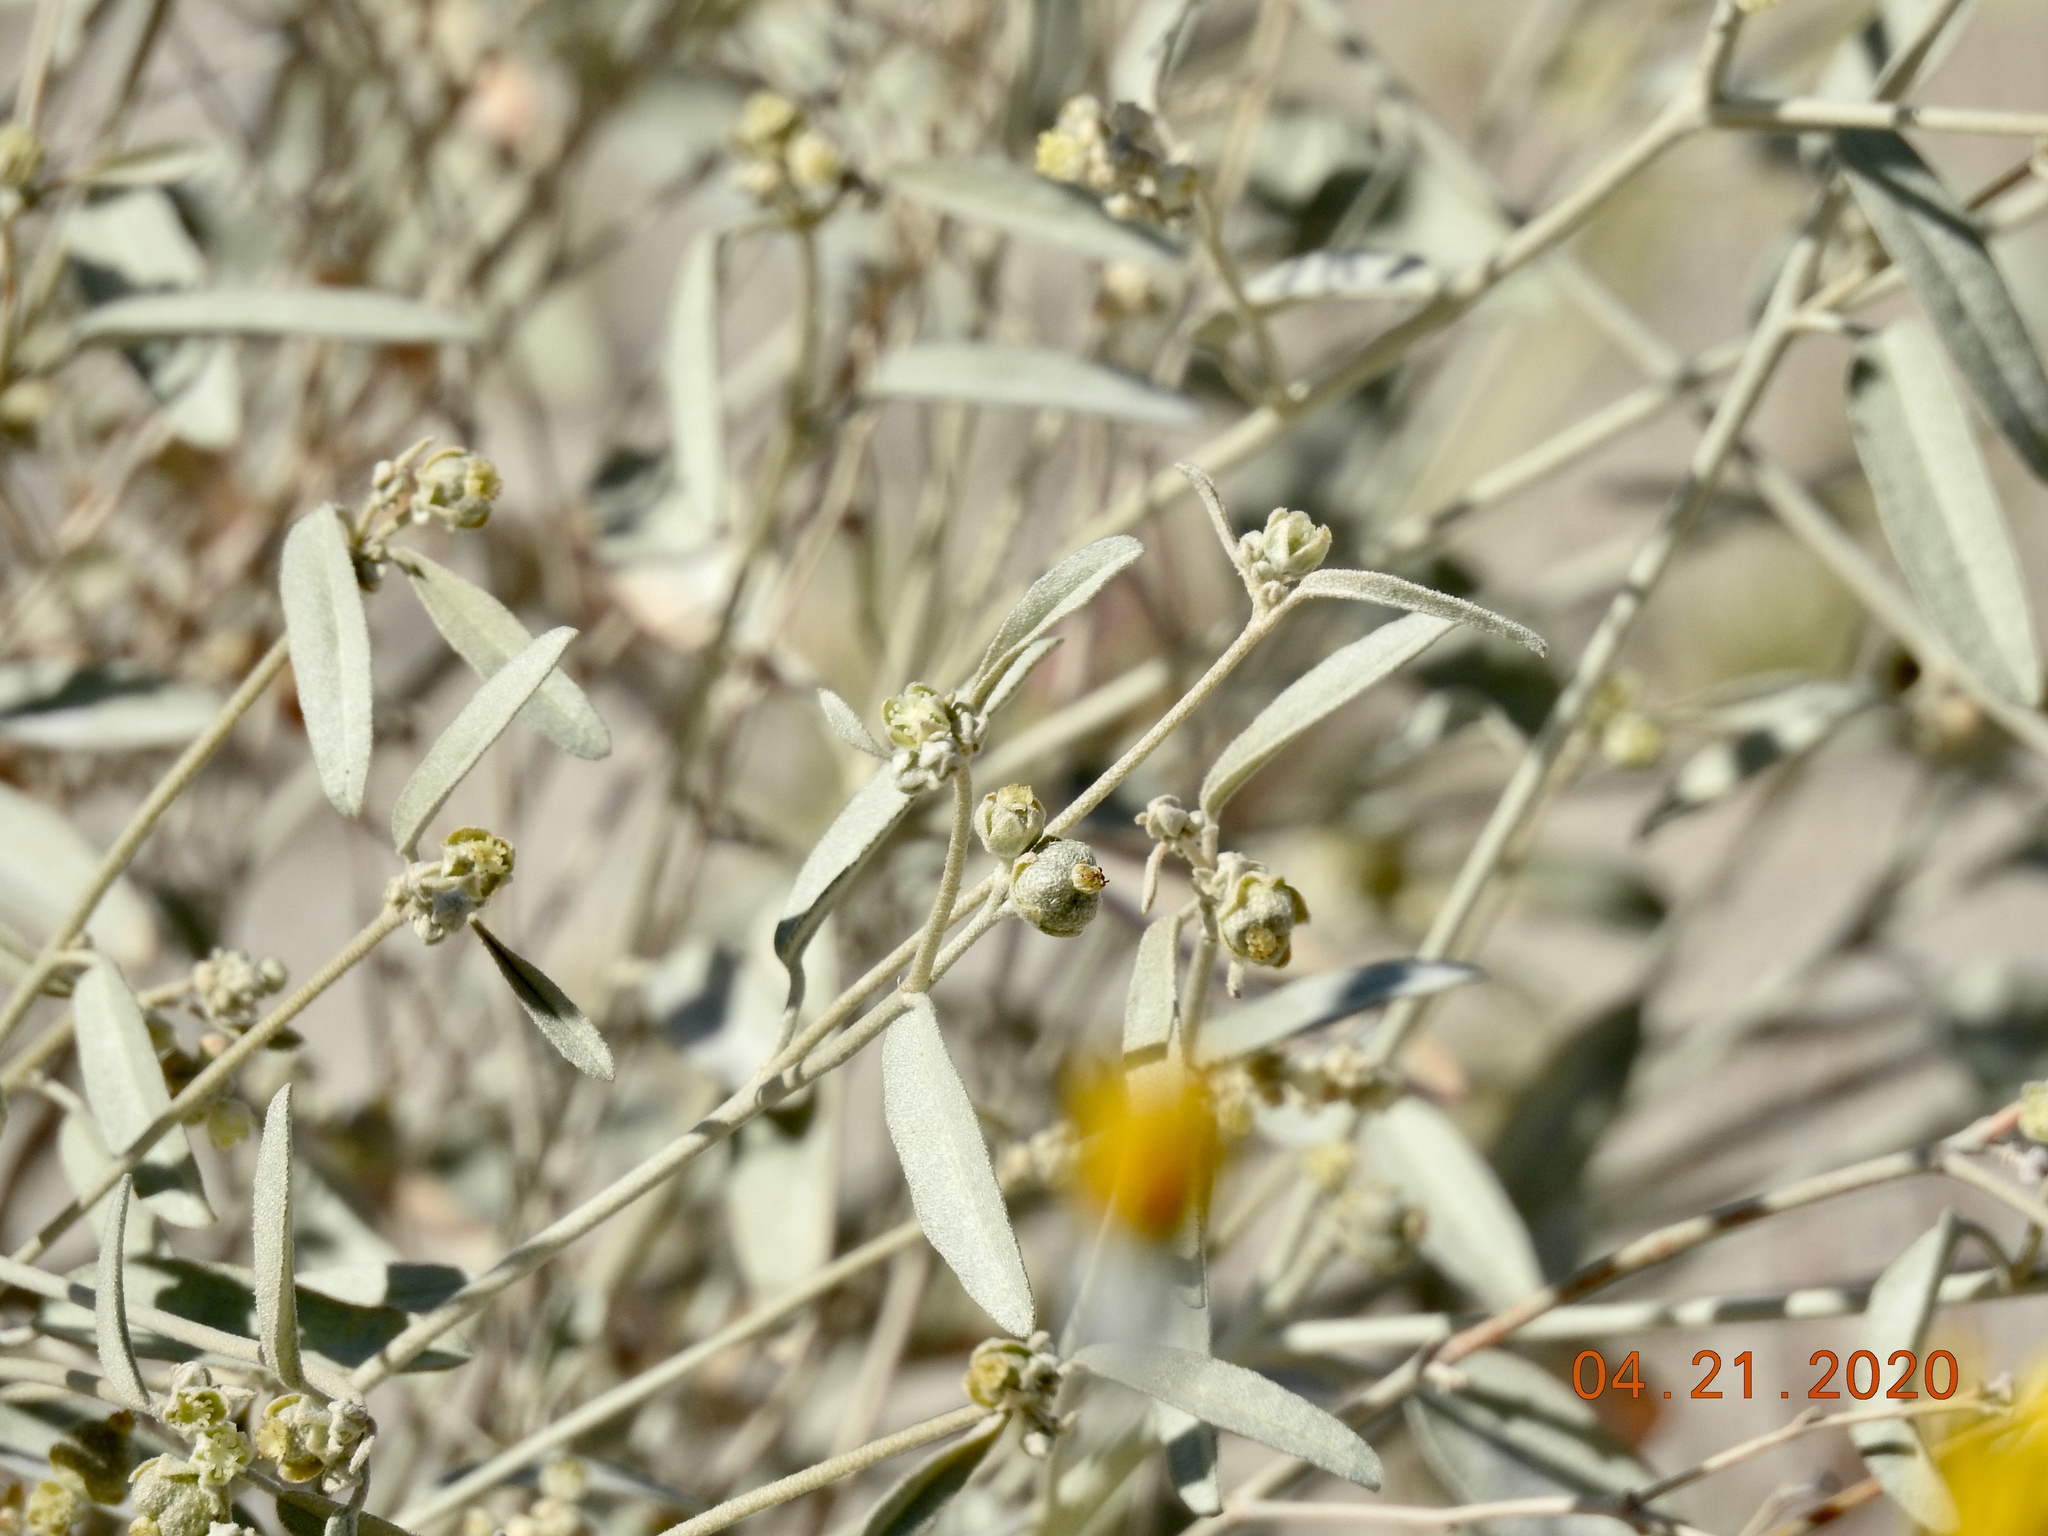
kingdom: Plantae
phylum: Tracheophyta
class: Magnoliopsida
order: Malpighiales
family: Euphorbiaceae
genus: Croton
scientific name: Croton californicus
